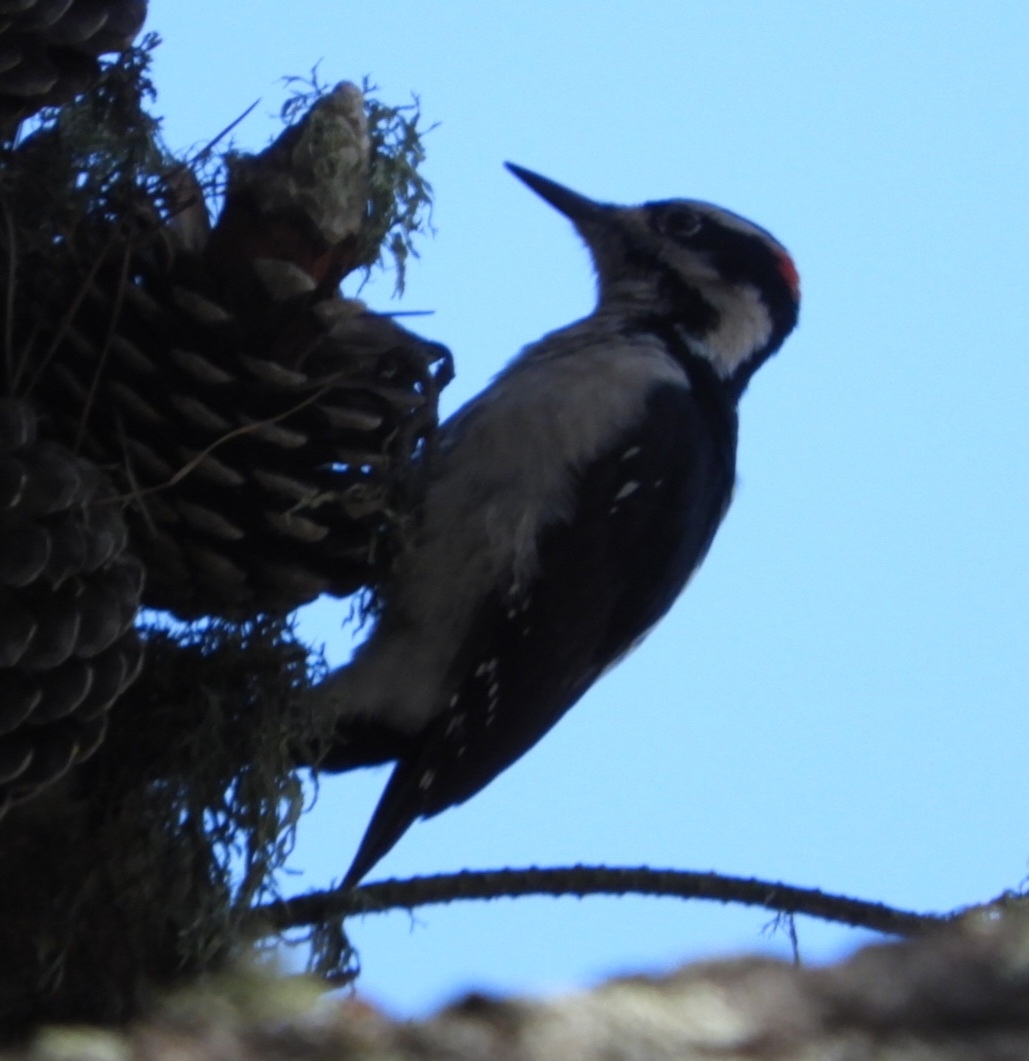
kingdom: Animalia
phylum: Chordata
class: Aves
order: Piciformes
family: Picidae
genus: Leuconotopicus
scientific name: Leuconotopicus villosus
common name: Hairy woodpecker
